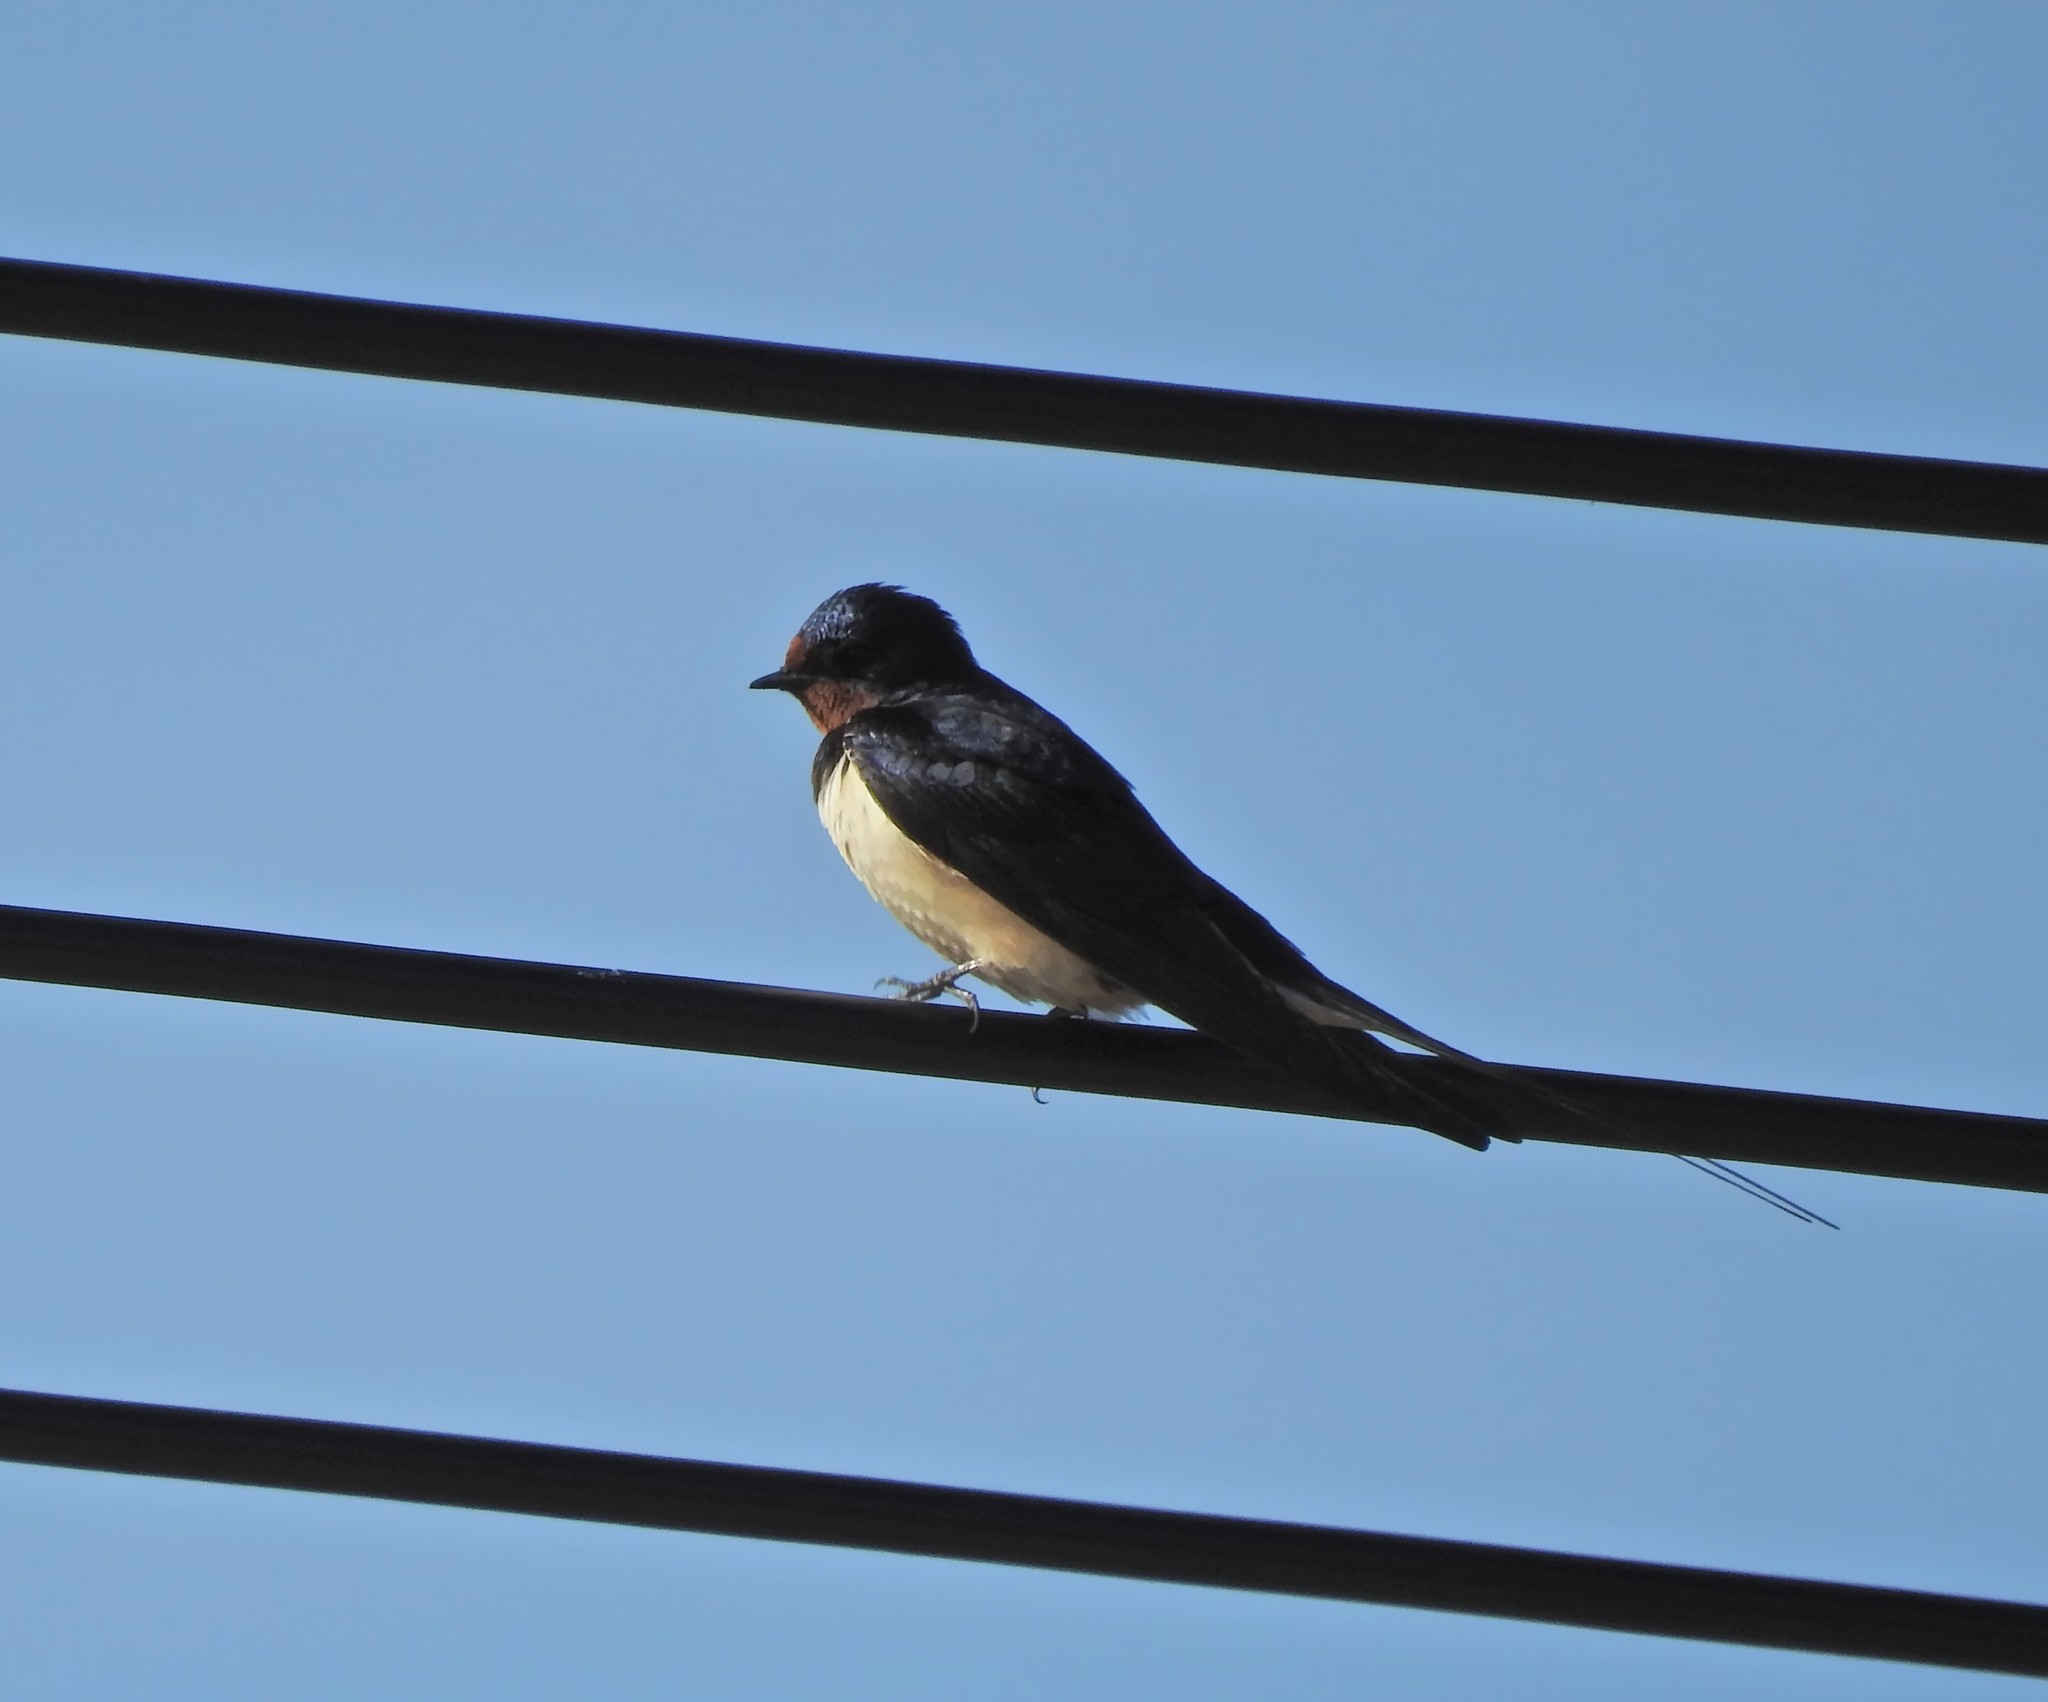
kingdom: Animalia
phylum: Chordata
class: Aves
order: Passeriformes
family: Hirundinidae
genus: Hirundo
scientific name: Hirundo rustica
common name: Barn swallow
